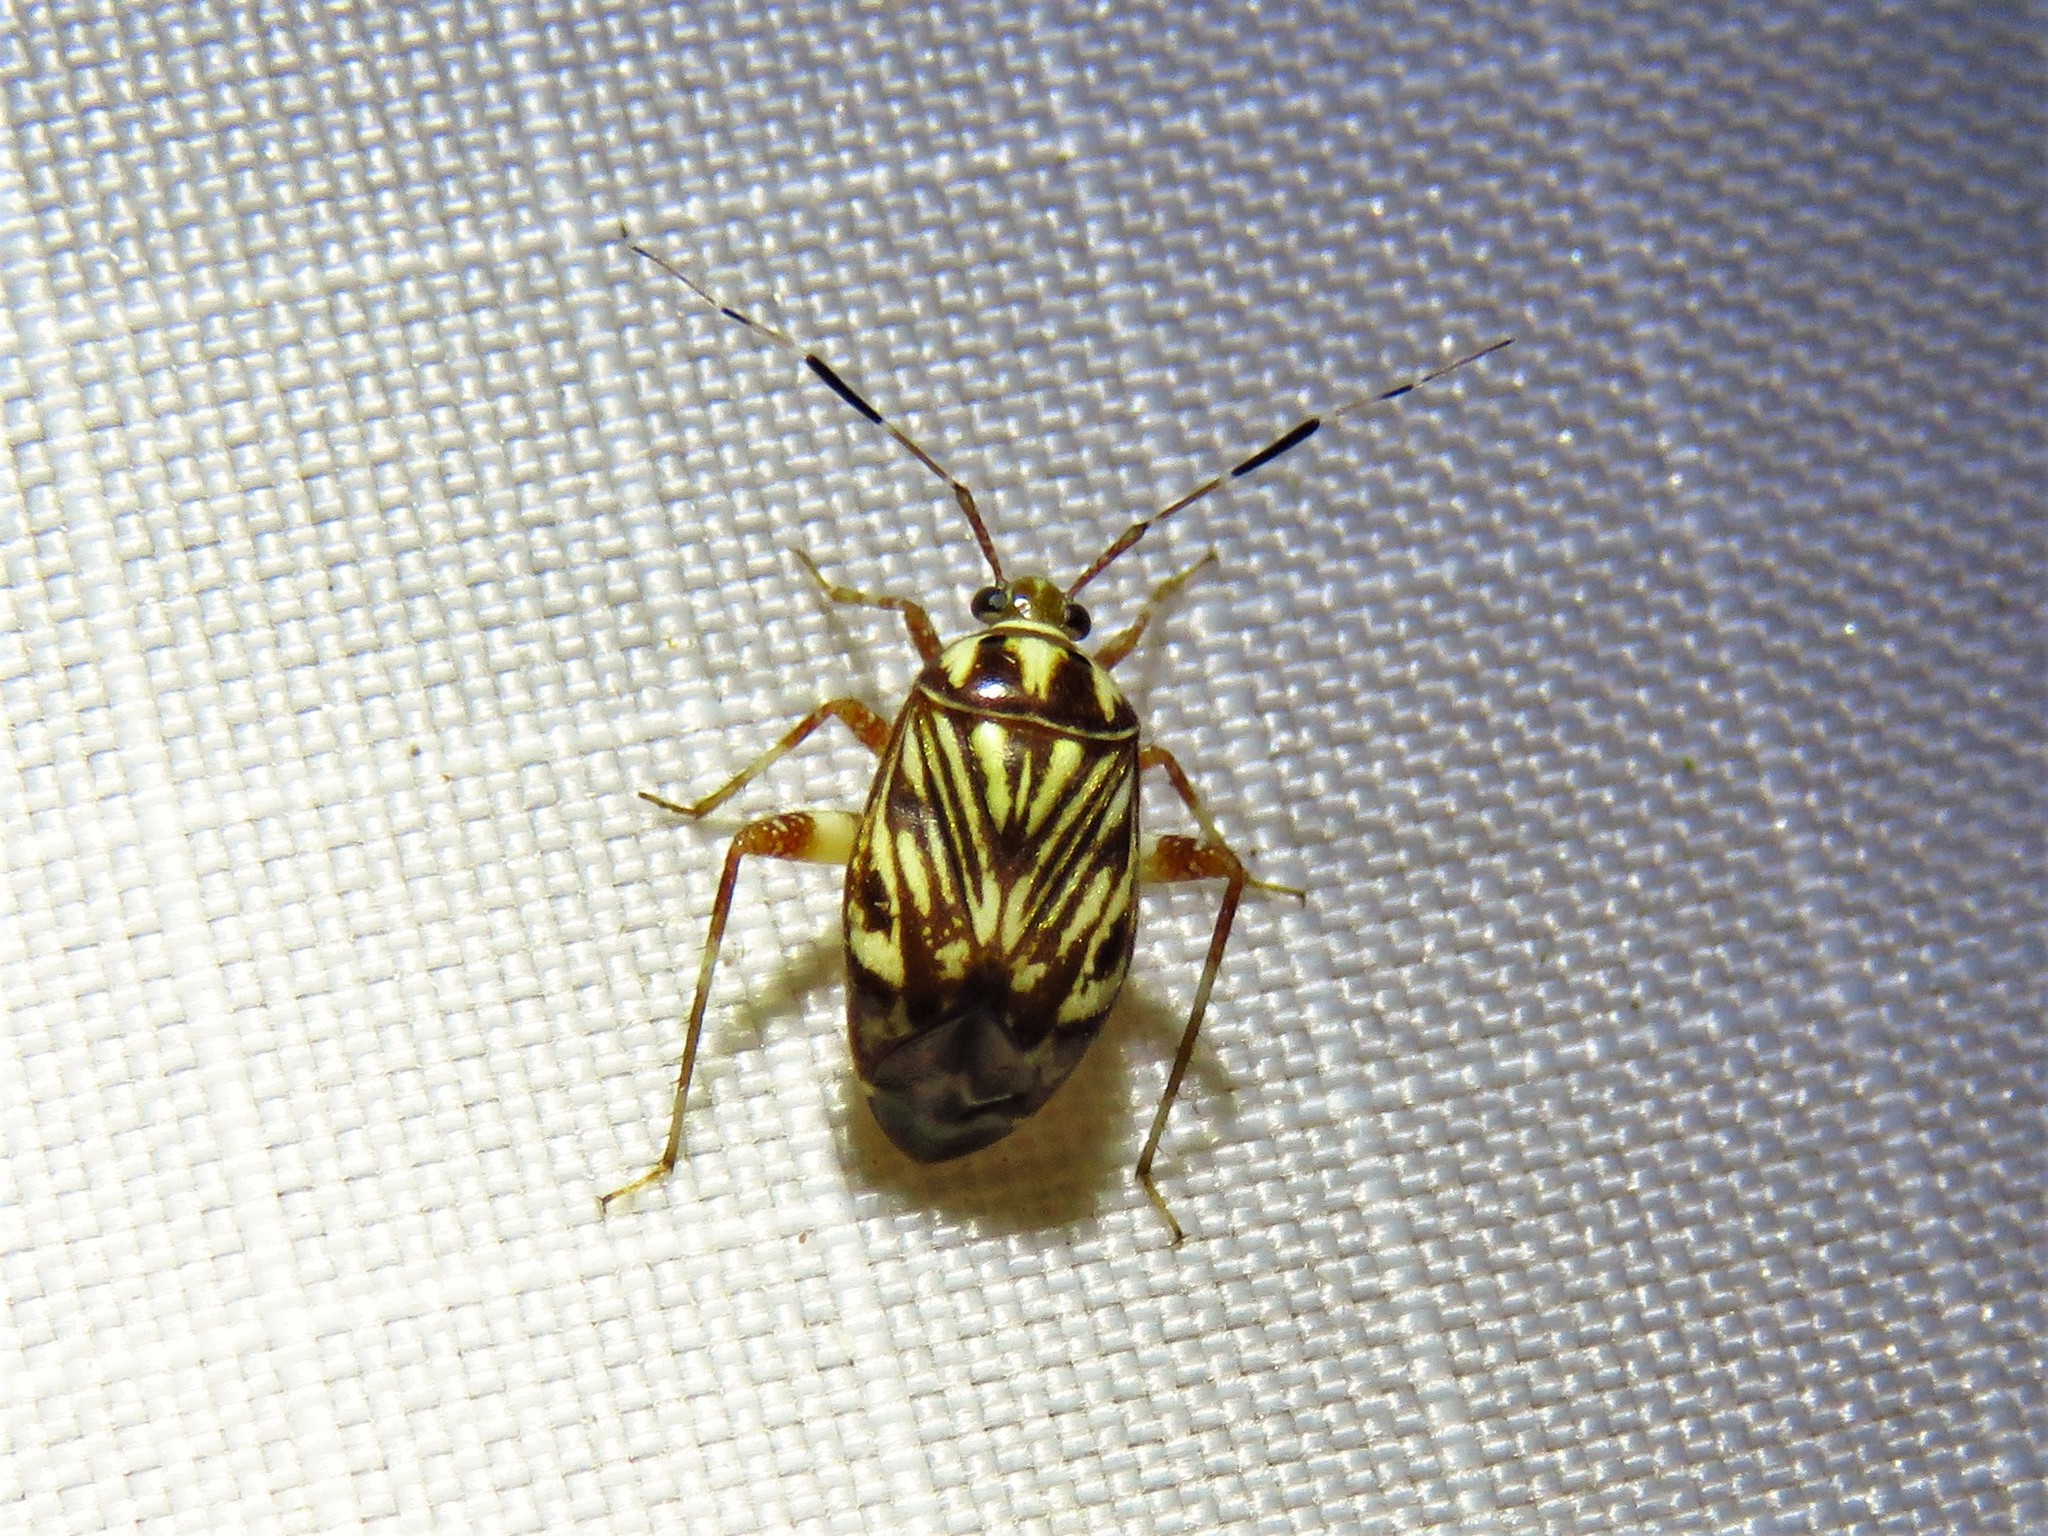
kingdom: Animalia
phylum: Arthropoda
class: Insecta
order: Hemiptera
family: Miridae
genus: Taedia
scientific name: Taedia virgulata
